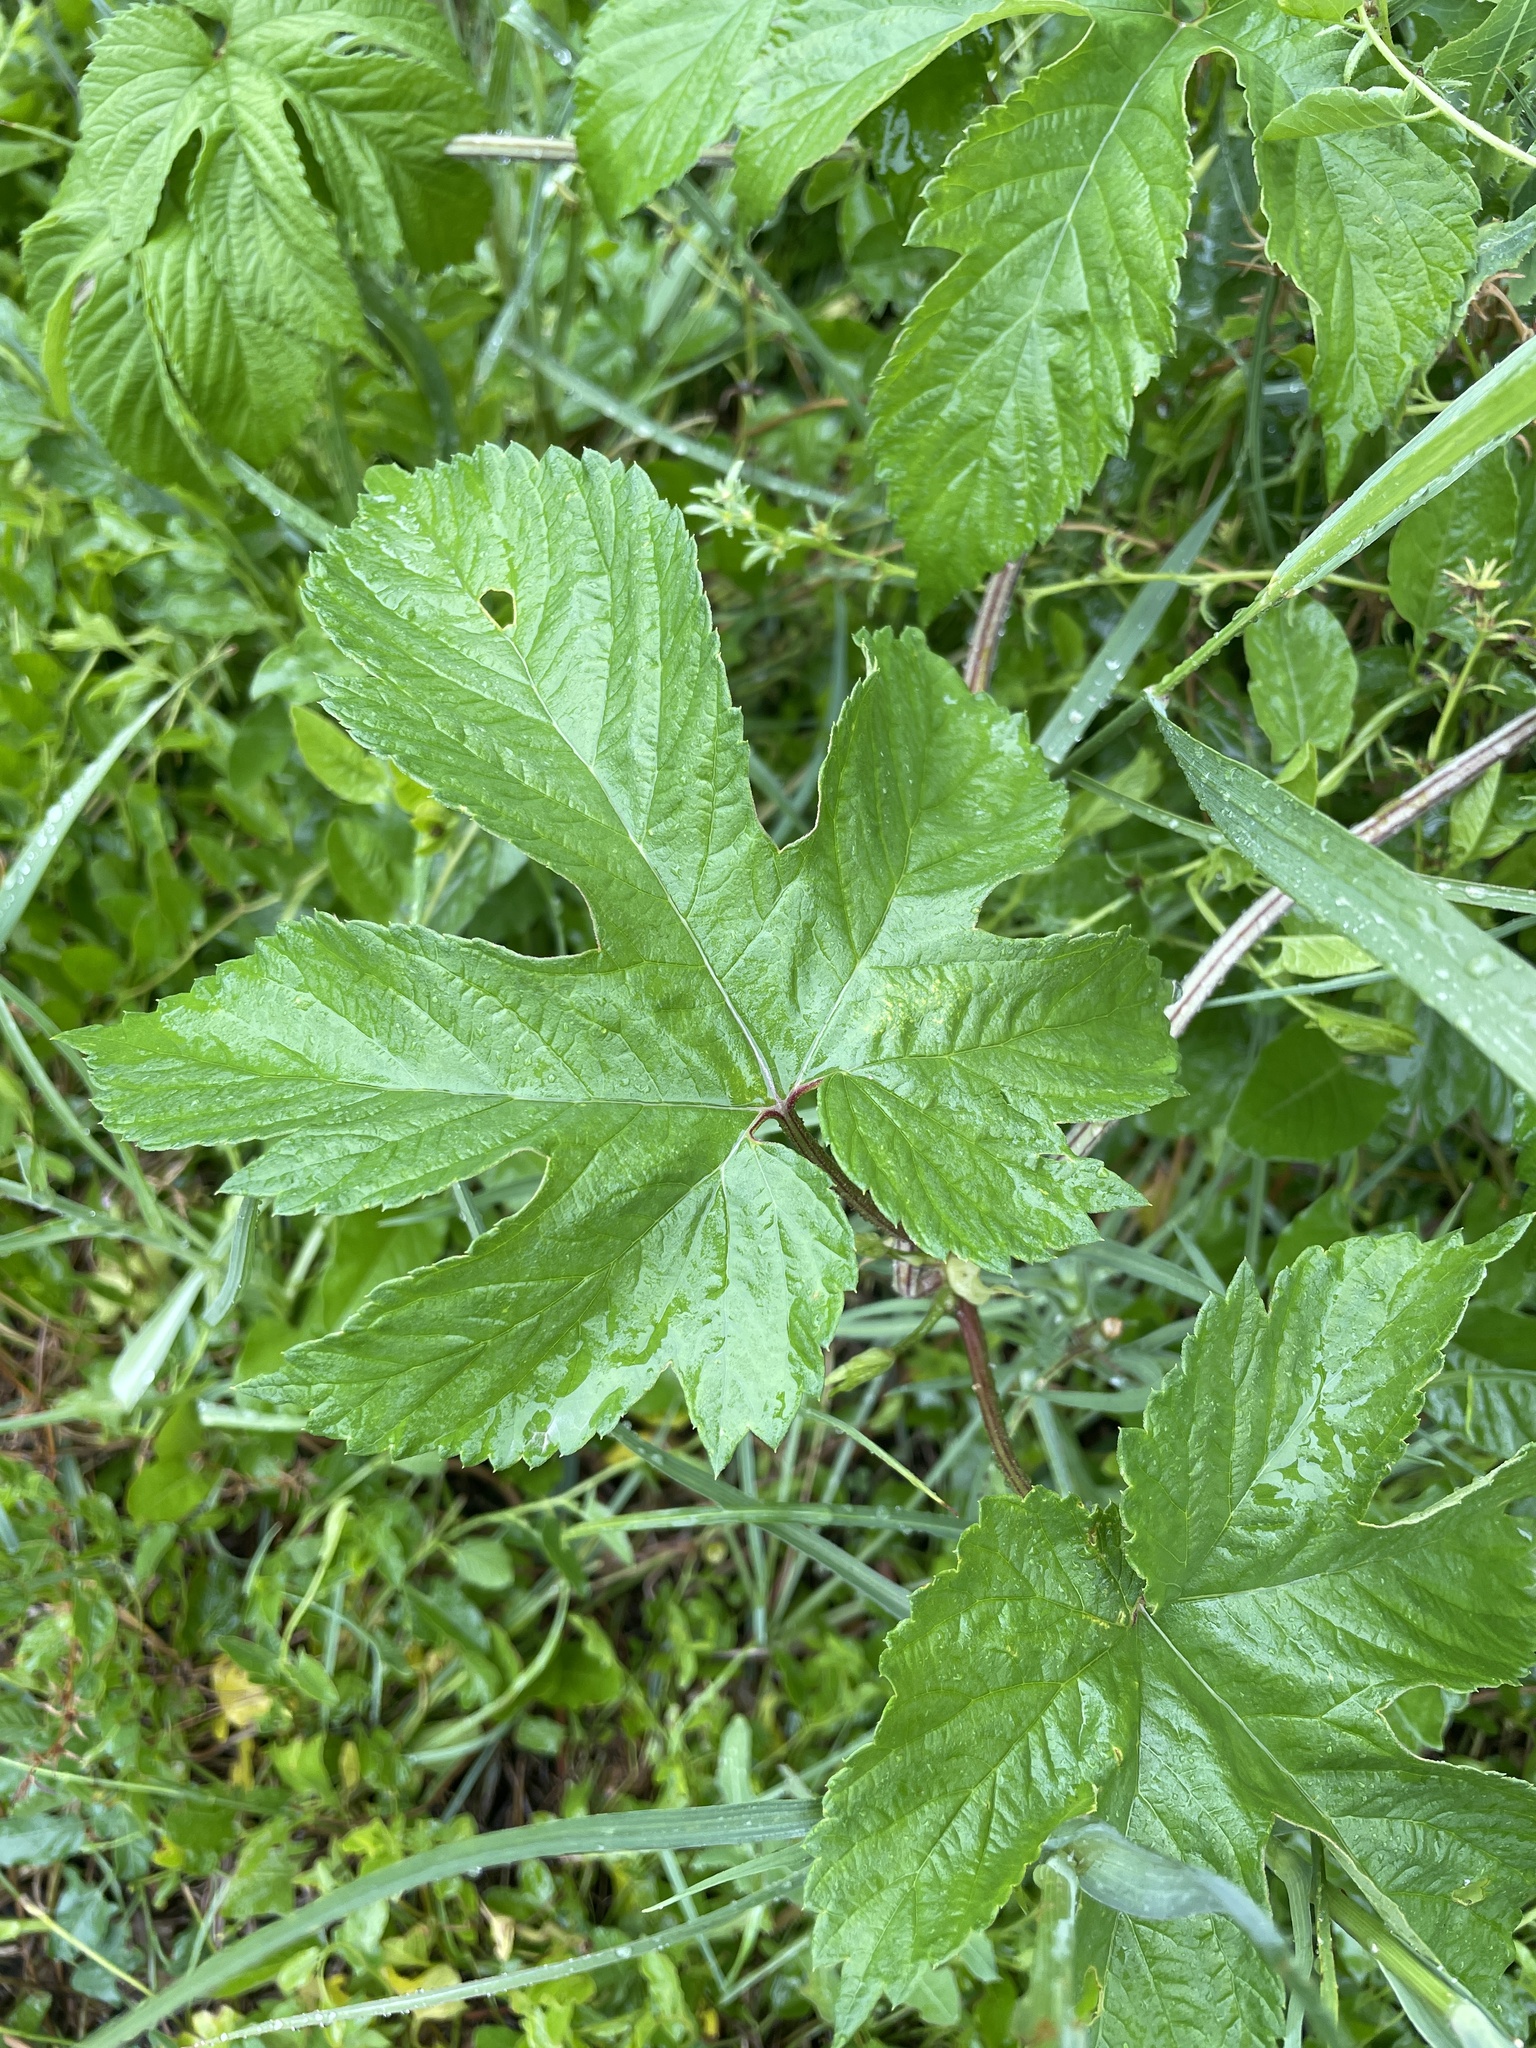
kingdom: Plantae
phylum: Tracheophyta
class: Magnoliopsida
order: Rosales
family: Cannabaceae
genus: Humulus
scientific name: Humulus lupulus
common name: Hop
